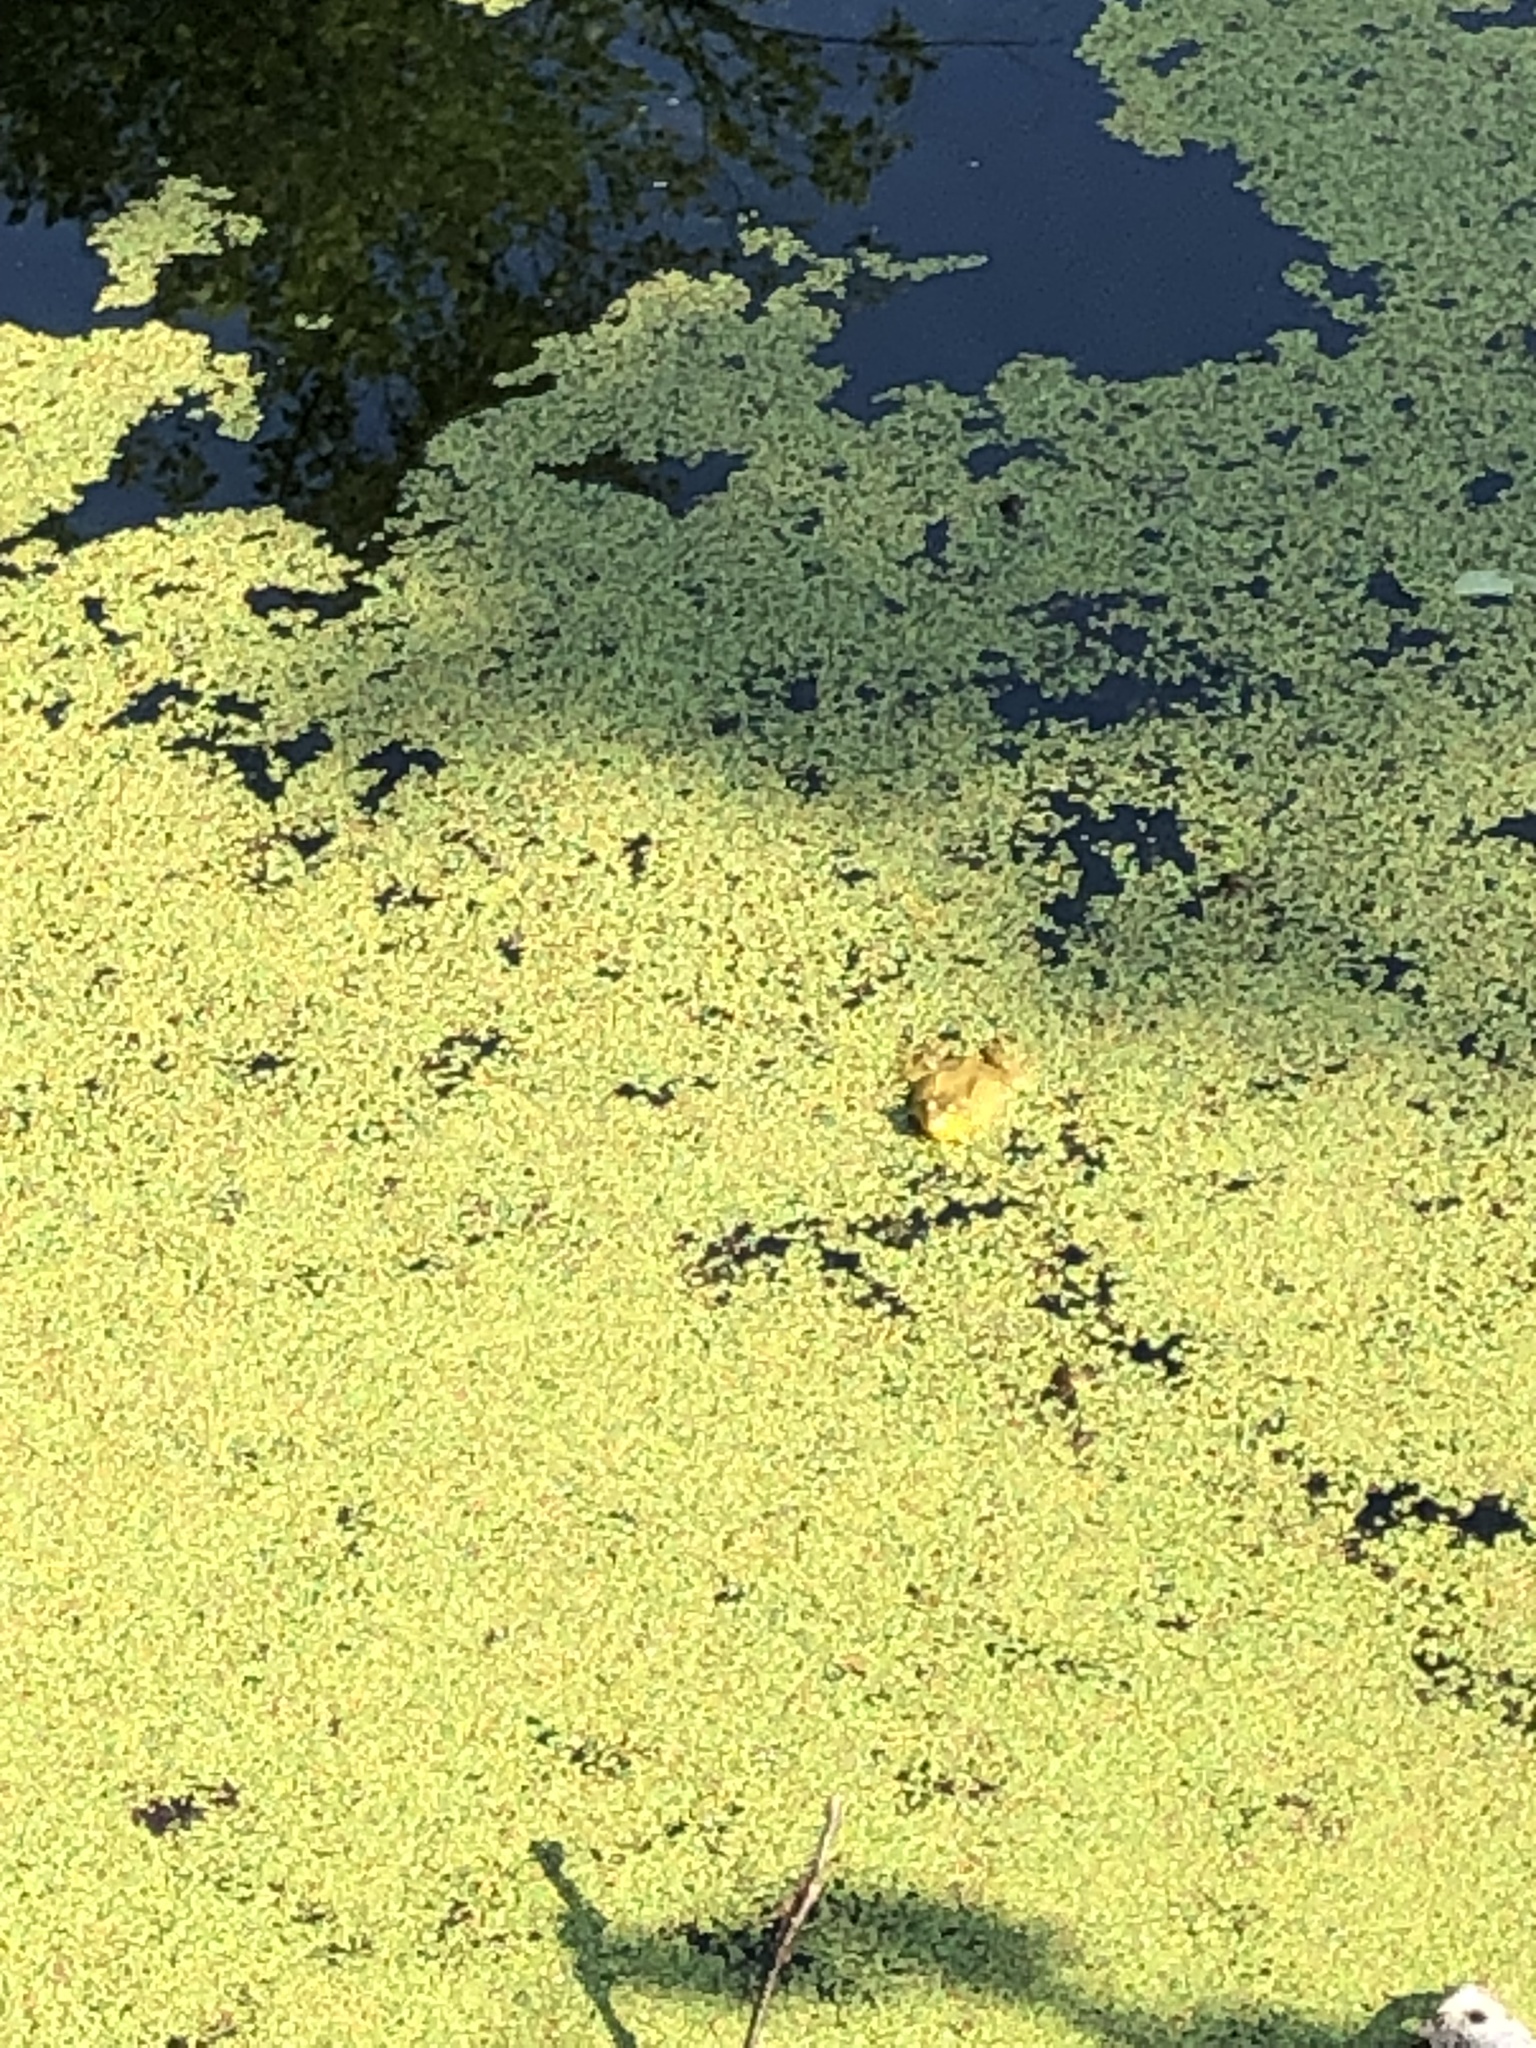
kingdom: Animalia
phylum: Chordata
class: Amphibia
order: Anura
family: Ranidae
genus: Lithobates
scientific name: Lithobates clamitans
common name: Green frog
